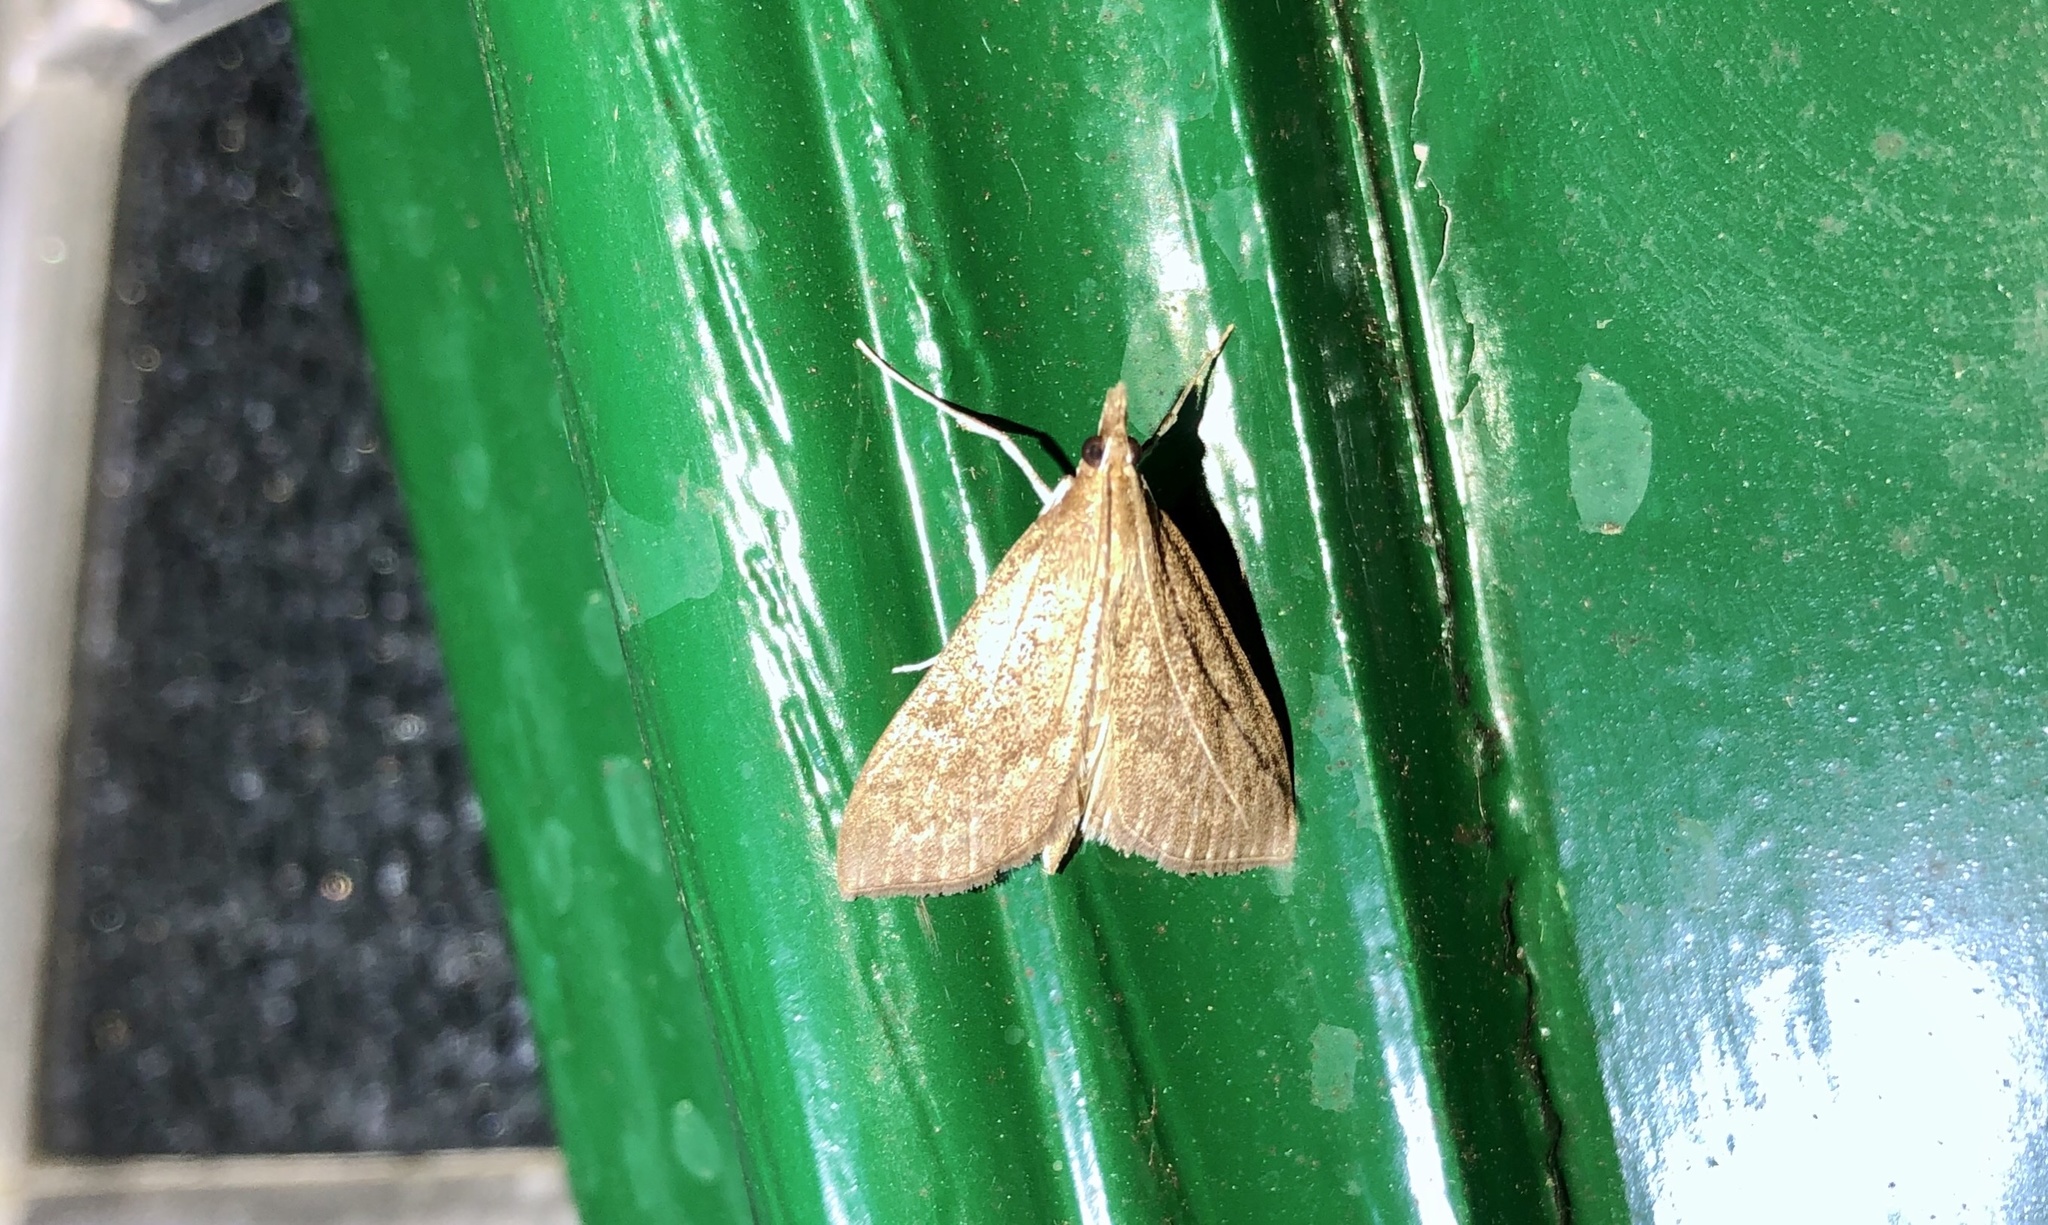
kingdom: Animalia
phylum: Arthropoda
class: Insecta
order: Lepidoptera
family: Crambidae
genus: Saucrobotys
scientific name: Saucrobotys futilalis
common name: Dogbane saucrobotys moth
